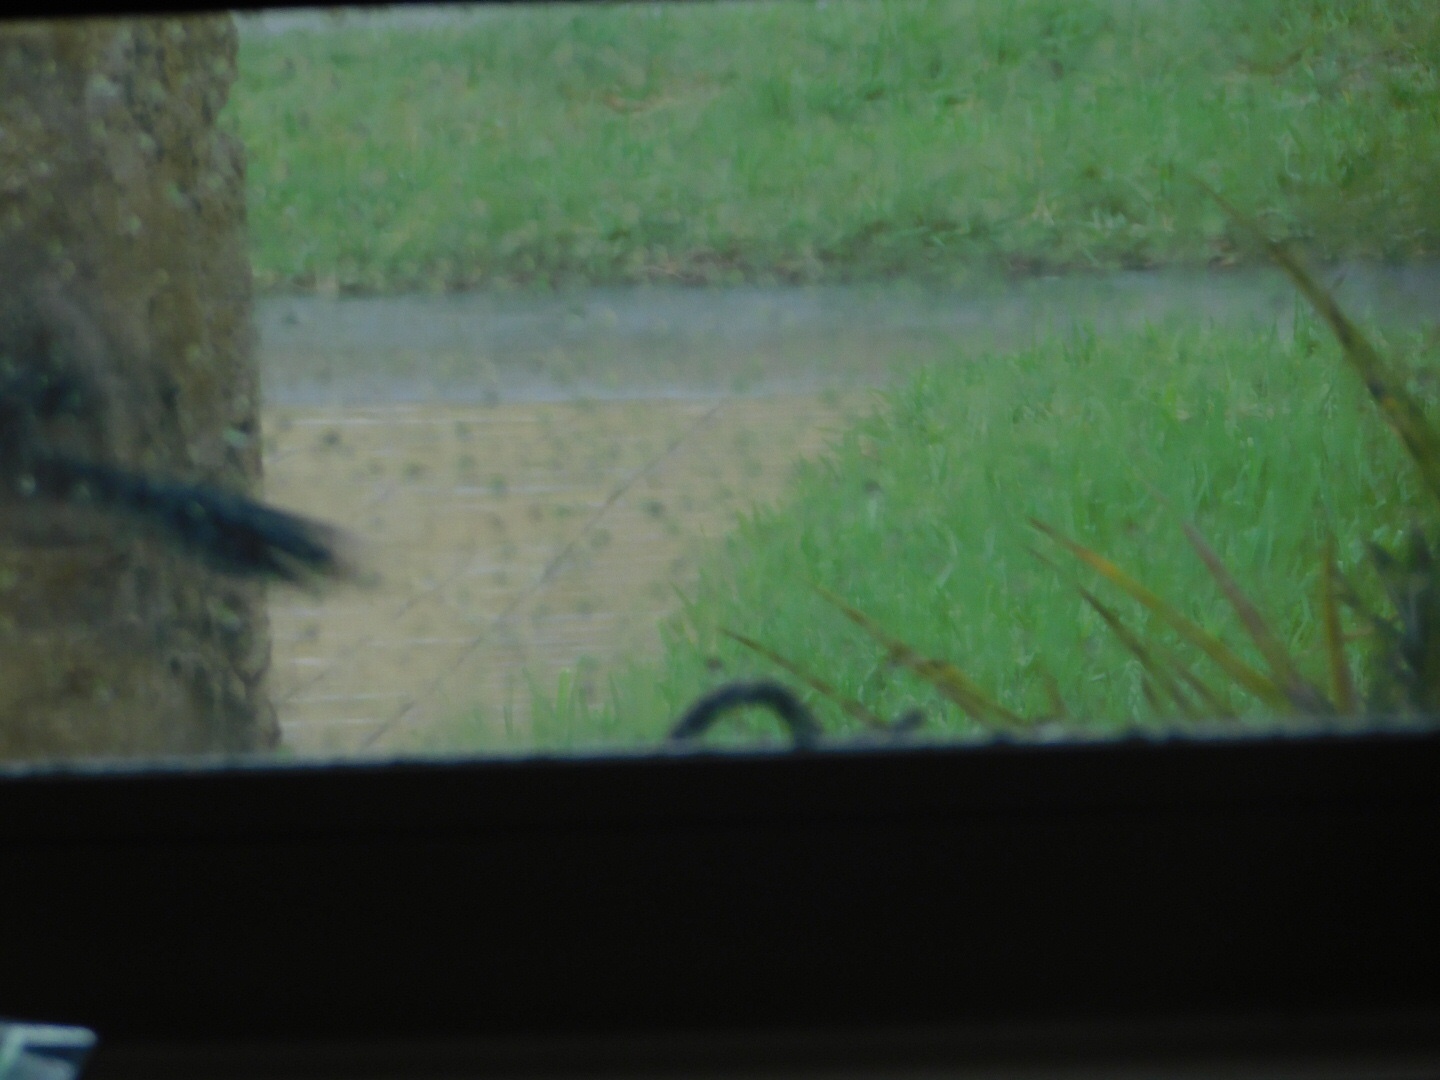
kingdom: Animalia
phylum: Chordata
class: Aves
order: Passeriformes
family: Corvidae
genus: Cyanocitta
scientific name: Cyanocitta cristata
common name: Blue jay
